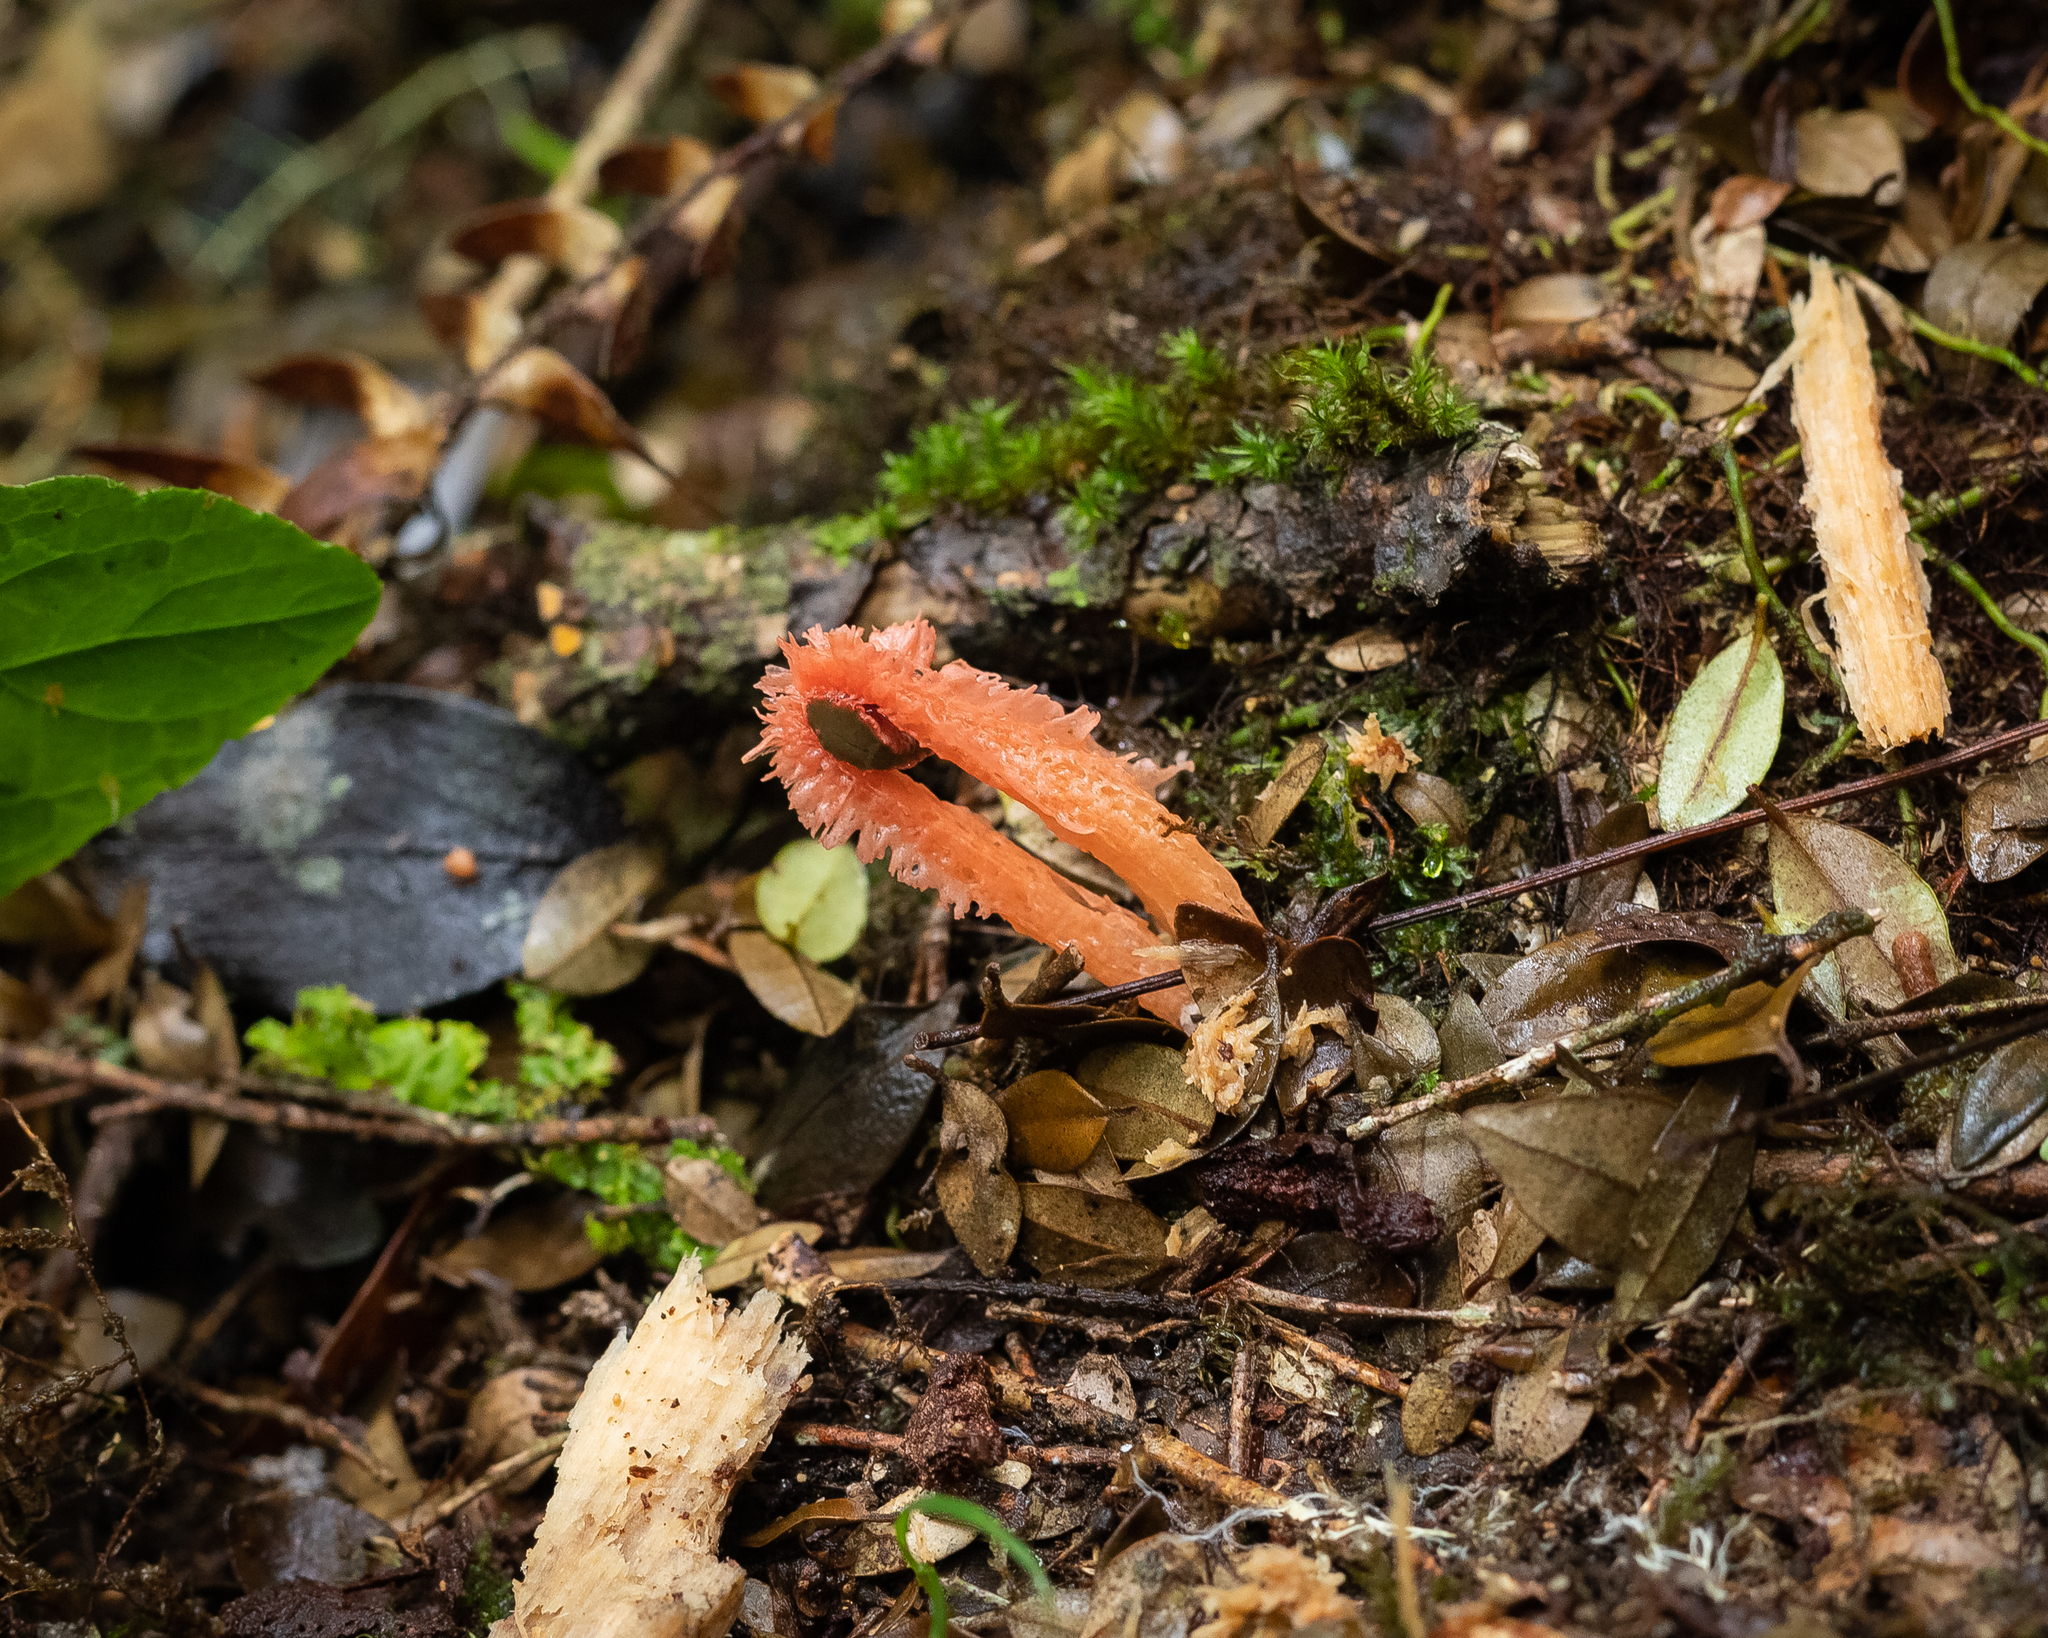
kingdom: Fungi
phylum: Basidiomycota
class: Agaricomycetes
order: Phallales
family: Phallaceae
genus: Laternea
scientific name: Laternea pusilla
